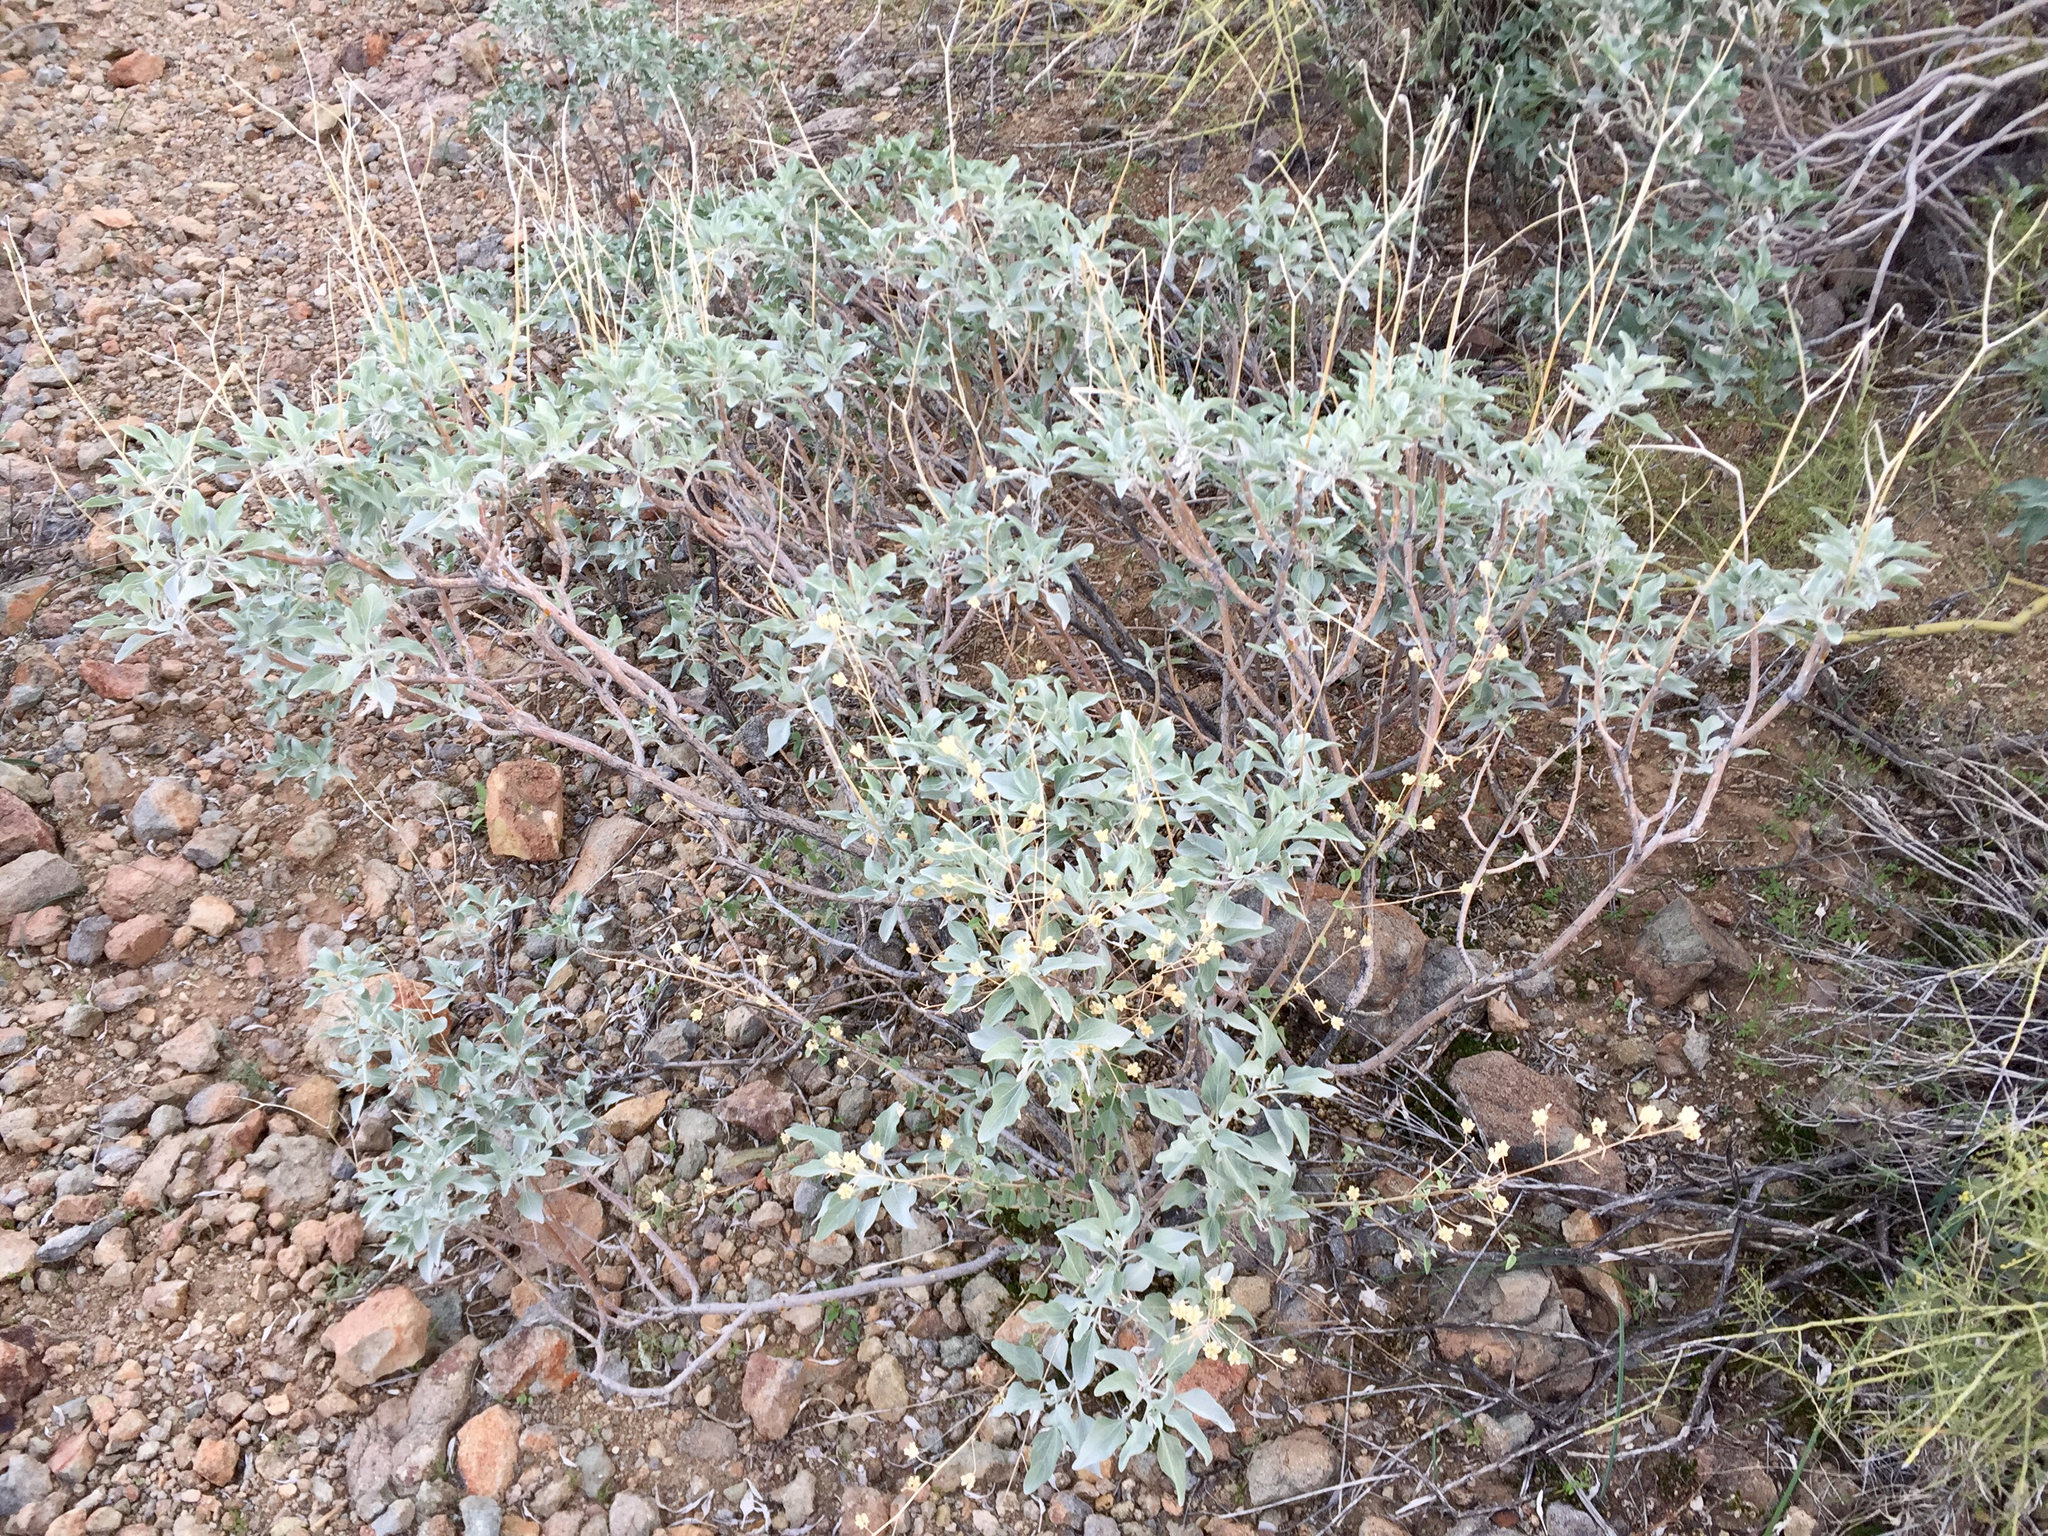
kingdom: Plantae
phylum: Tracheophyta
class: Magnoliopsida
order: Asterales
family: Asteraceae
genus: Encelia
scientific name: Encelia farinosa
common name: Brittlebush
